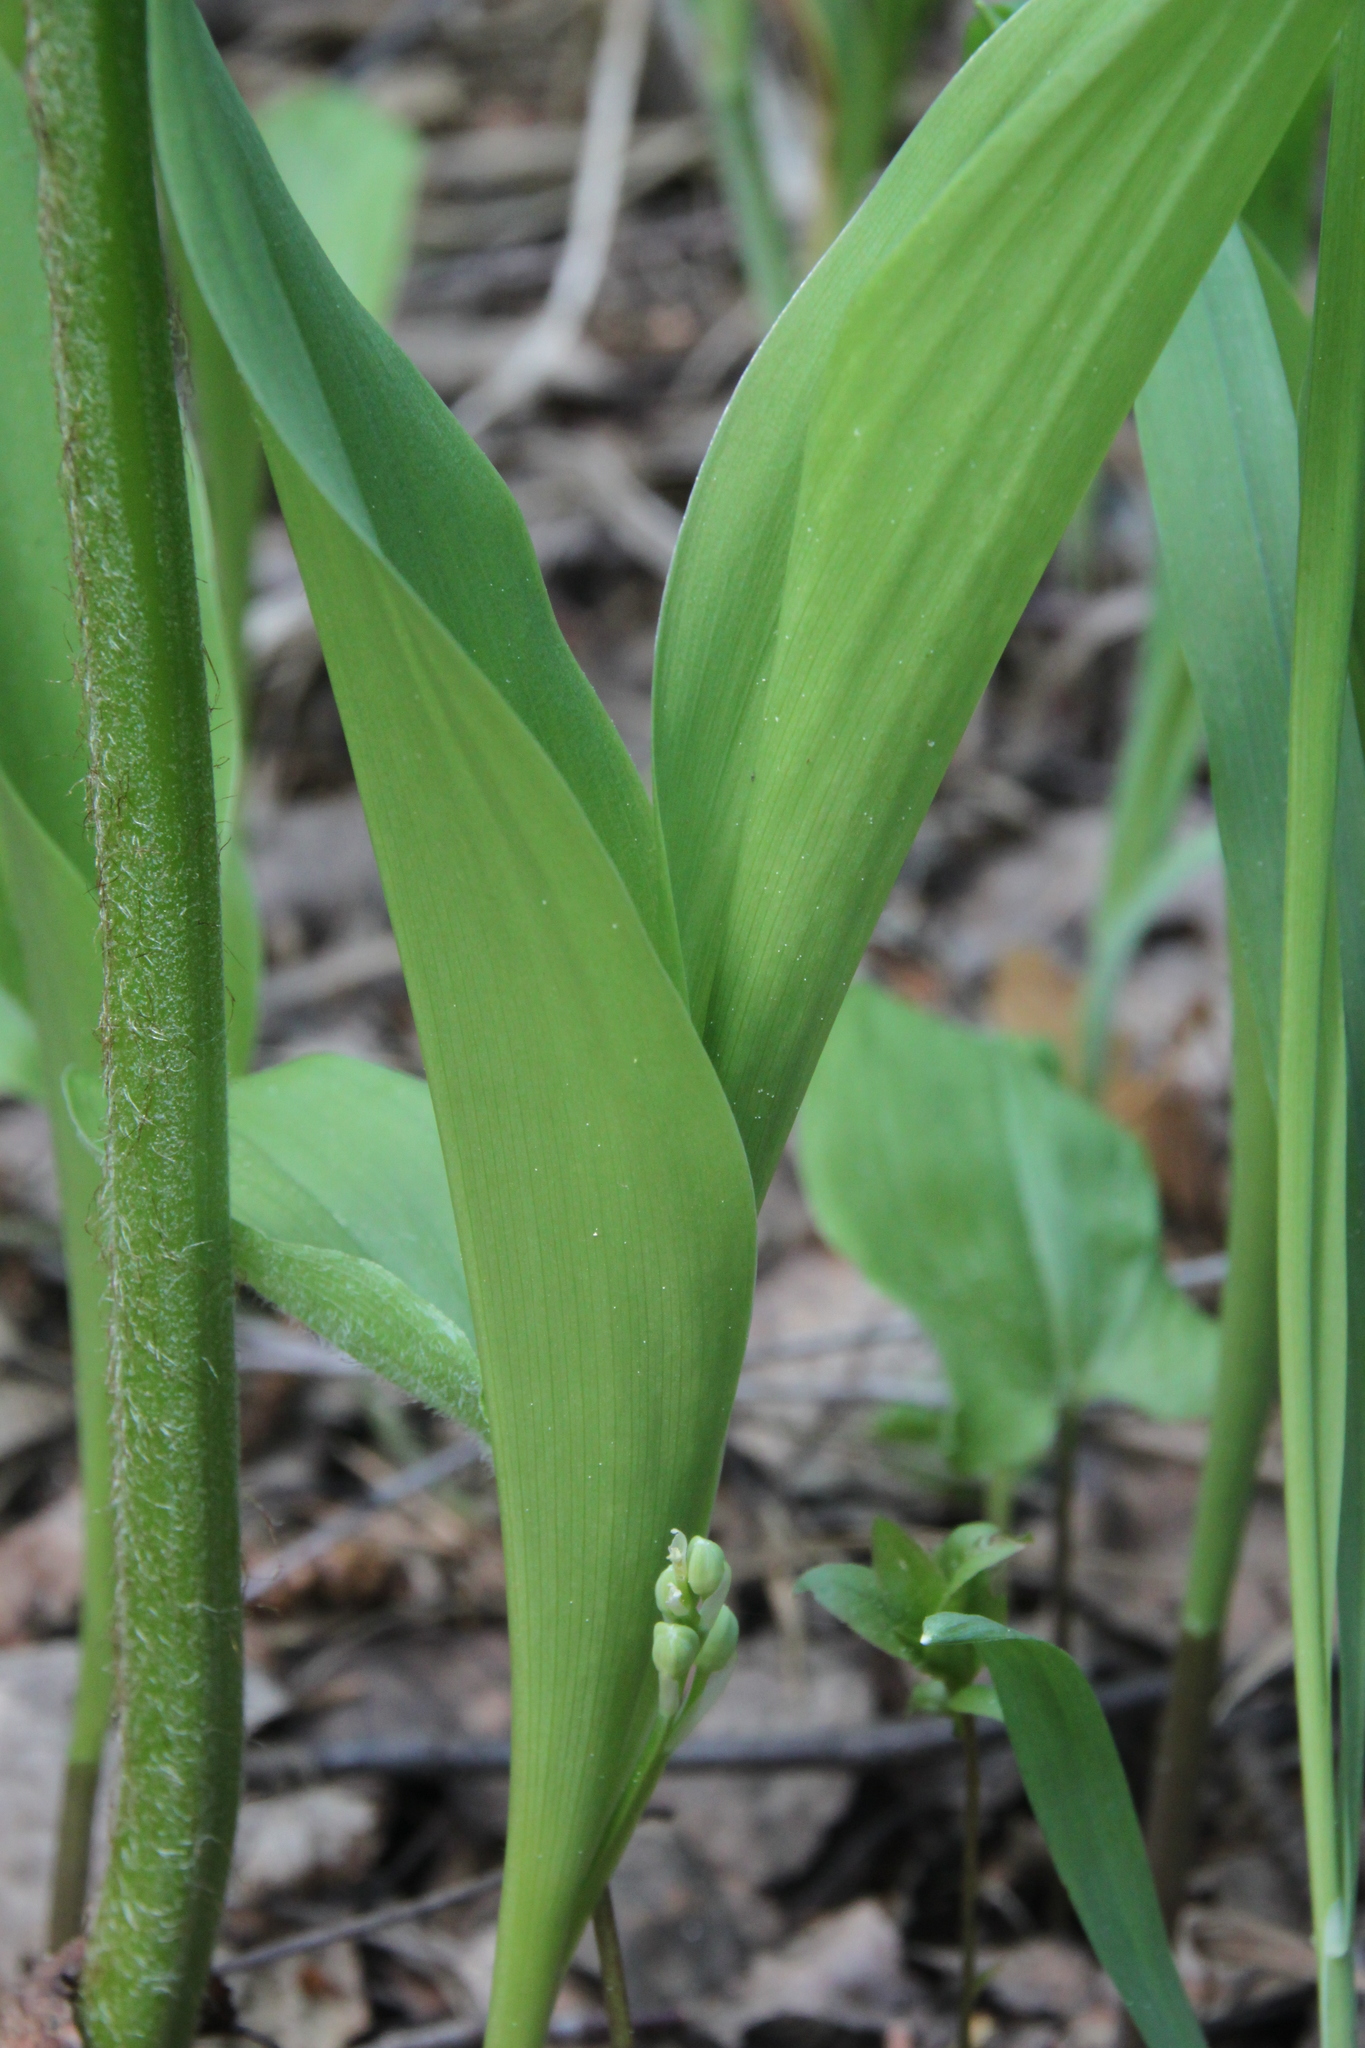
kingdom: Plantae
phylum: Tracheophyta
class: Liliopsida
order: Asparagales
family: Asparagaceae
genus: Convallaria
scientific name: Convallaria majalis
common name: Lily-of-the-valley
